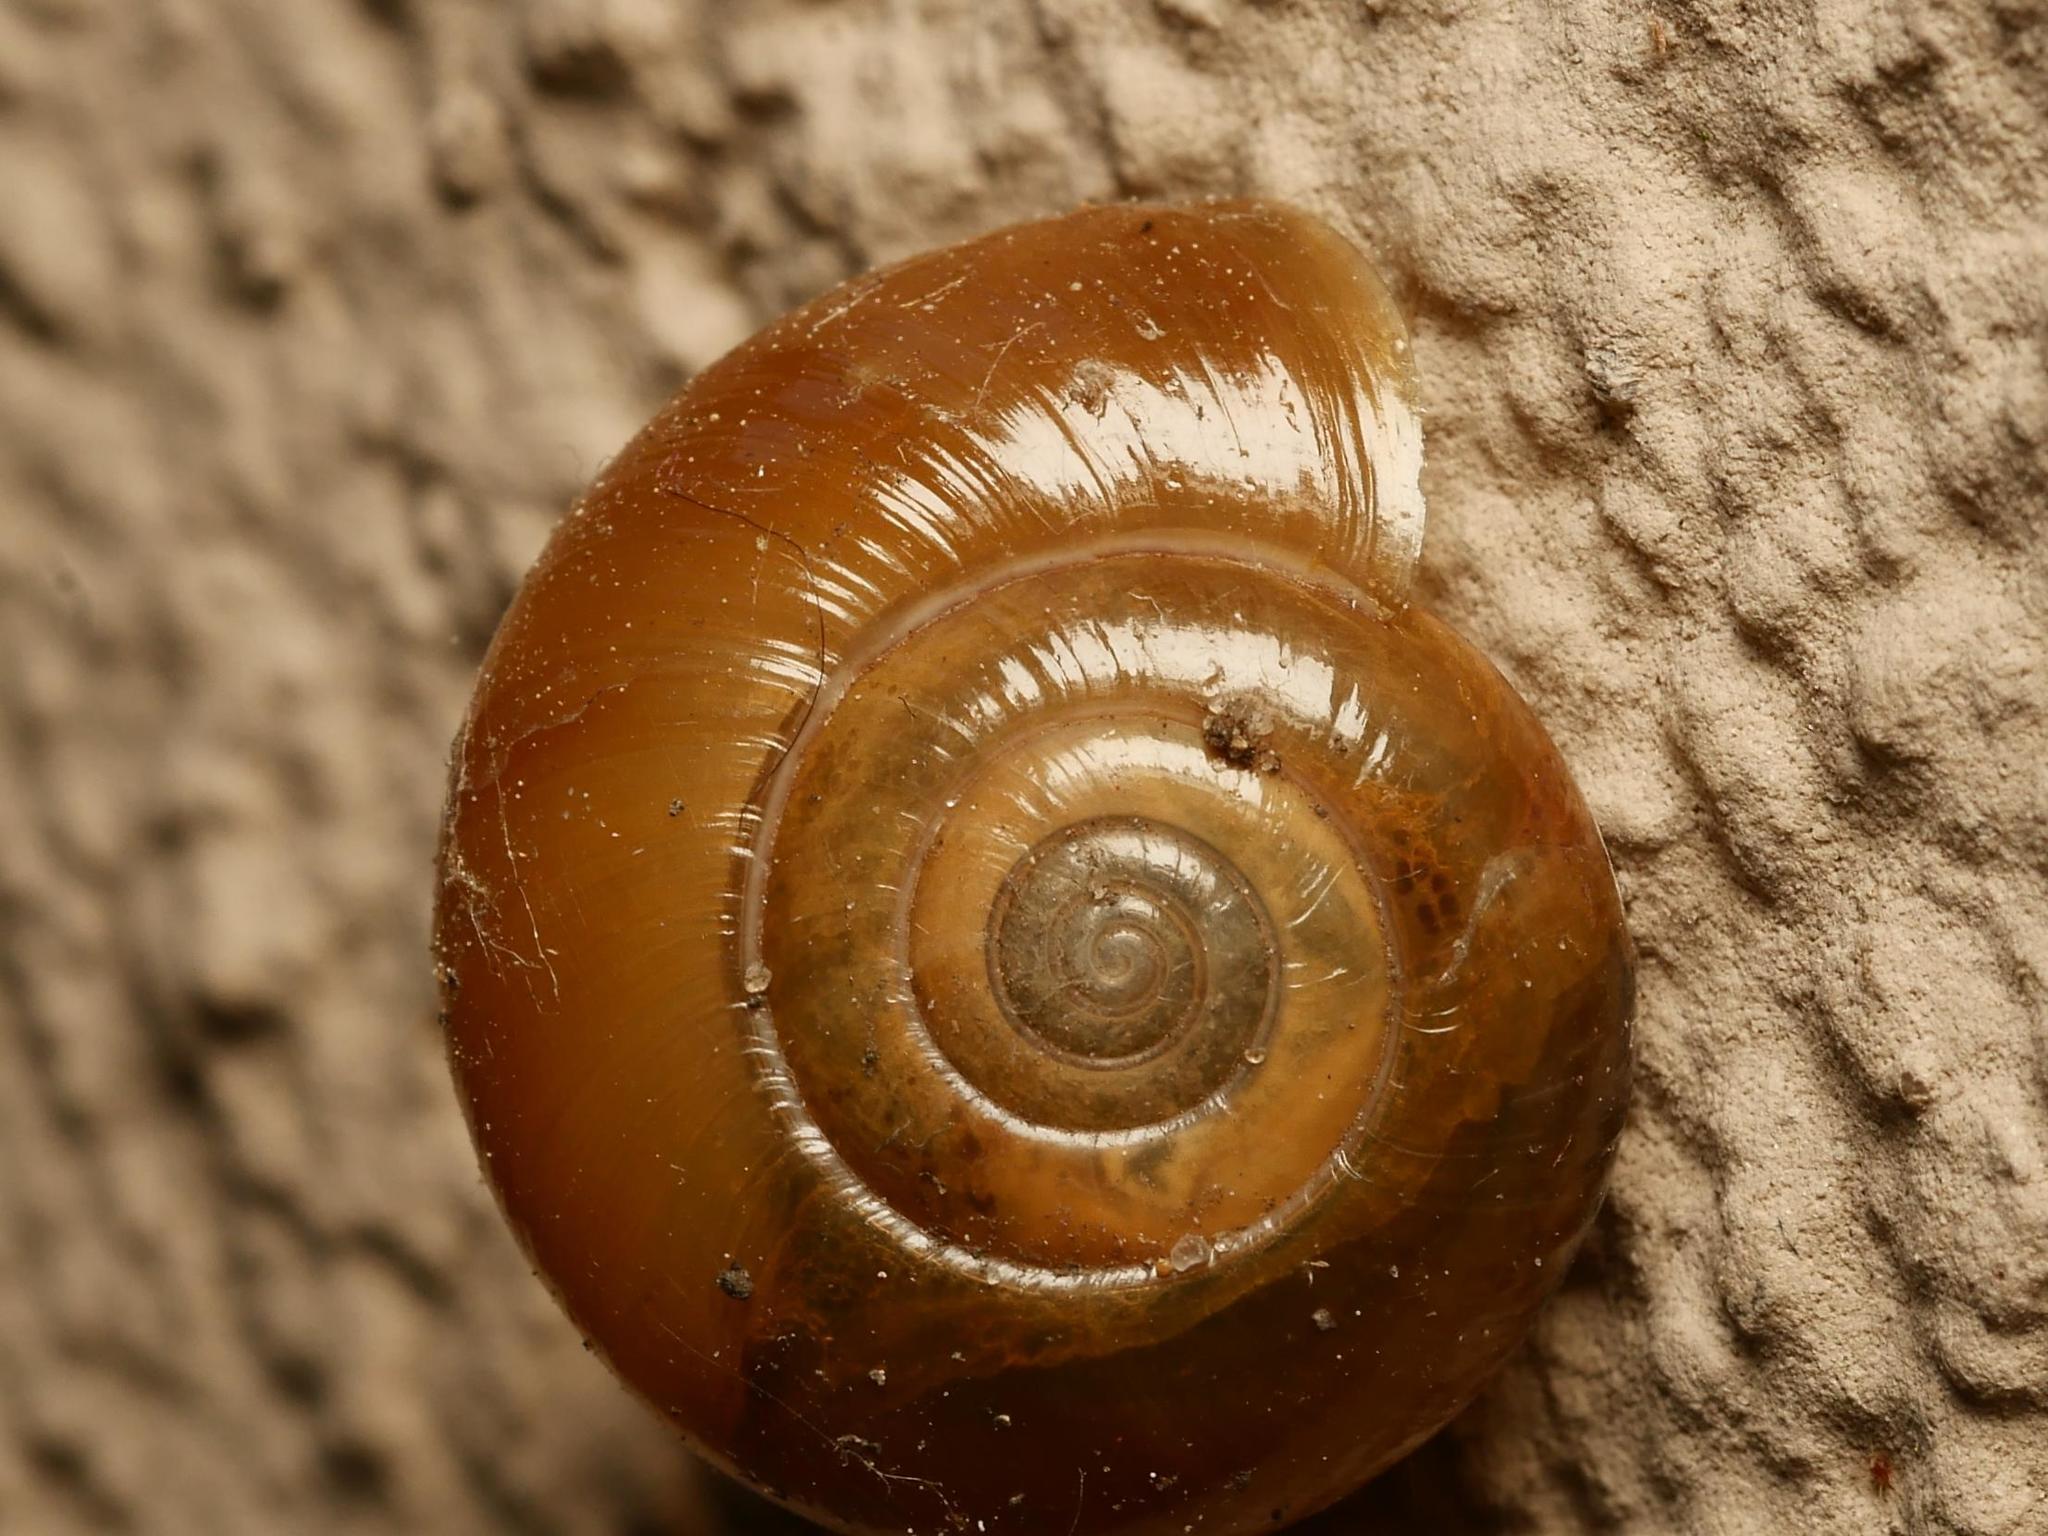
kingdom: Animalia
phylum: Mollusca
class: Gastropoda
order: Stylommatophora
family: Oxychilidae
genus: Oxychilus
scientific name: Oxychilus draparnaudi
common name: Draparnaud's glass snail
